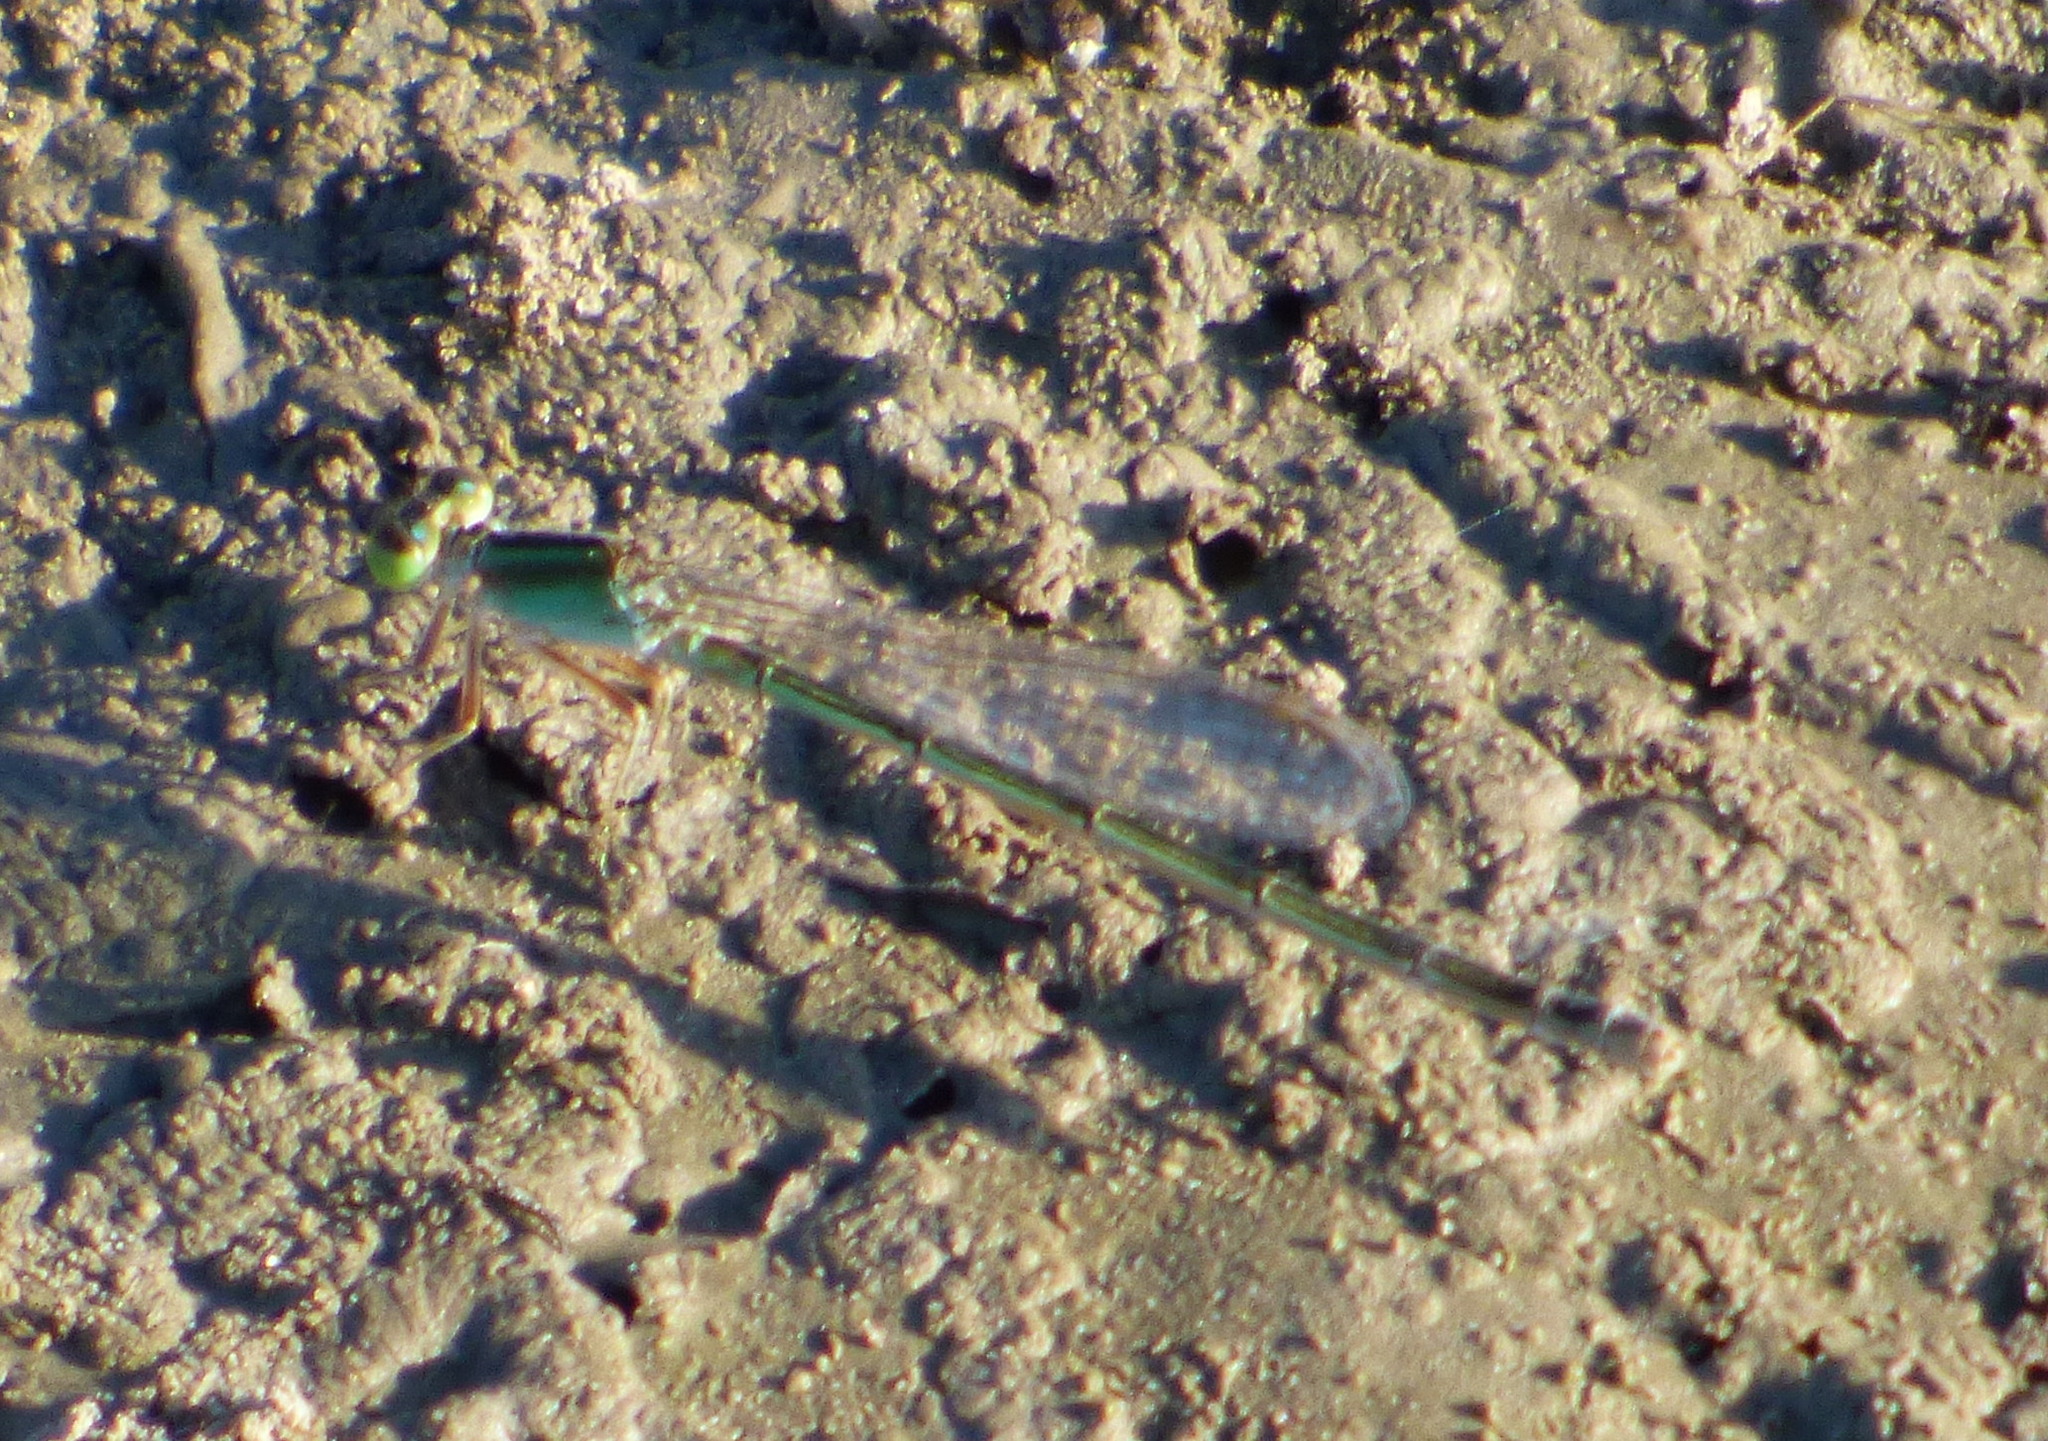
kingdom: Animalia
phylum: Arthropoda
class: Insecta
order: Odonata
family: Coenagrionidae
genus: Ischnura
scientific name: Ischnura fluviatilis
